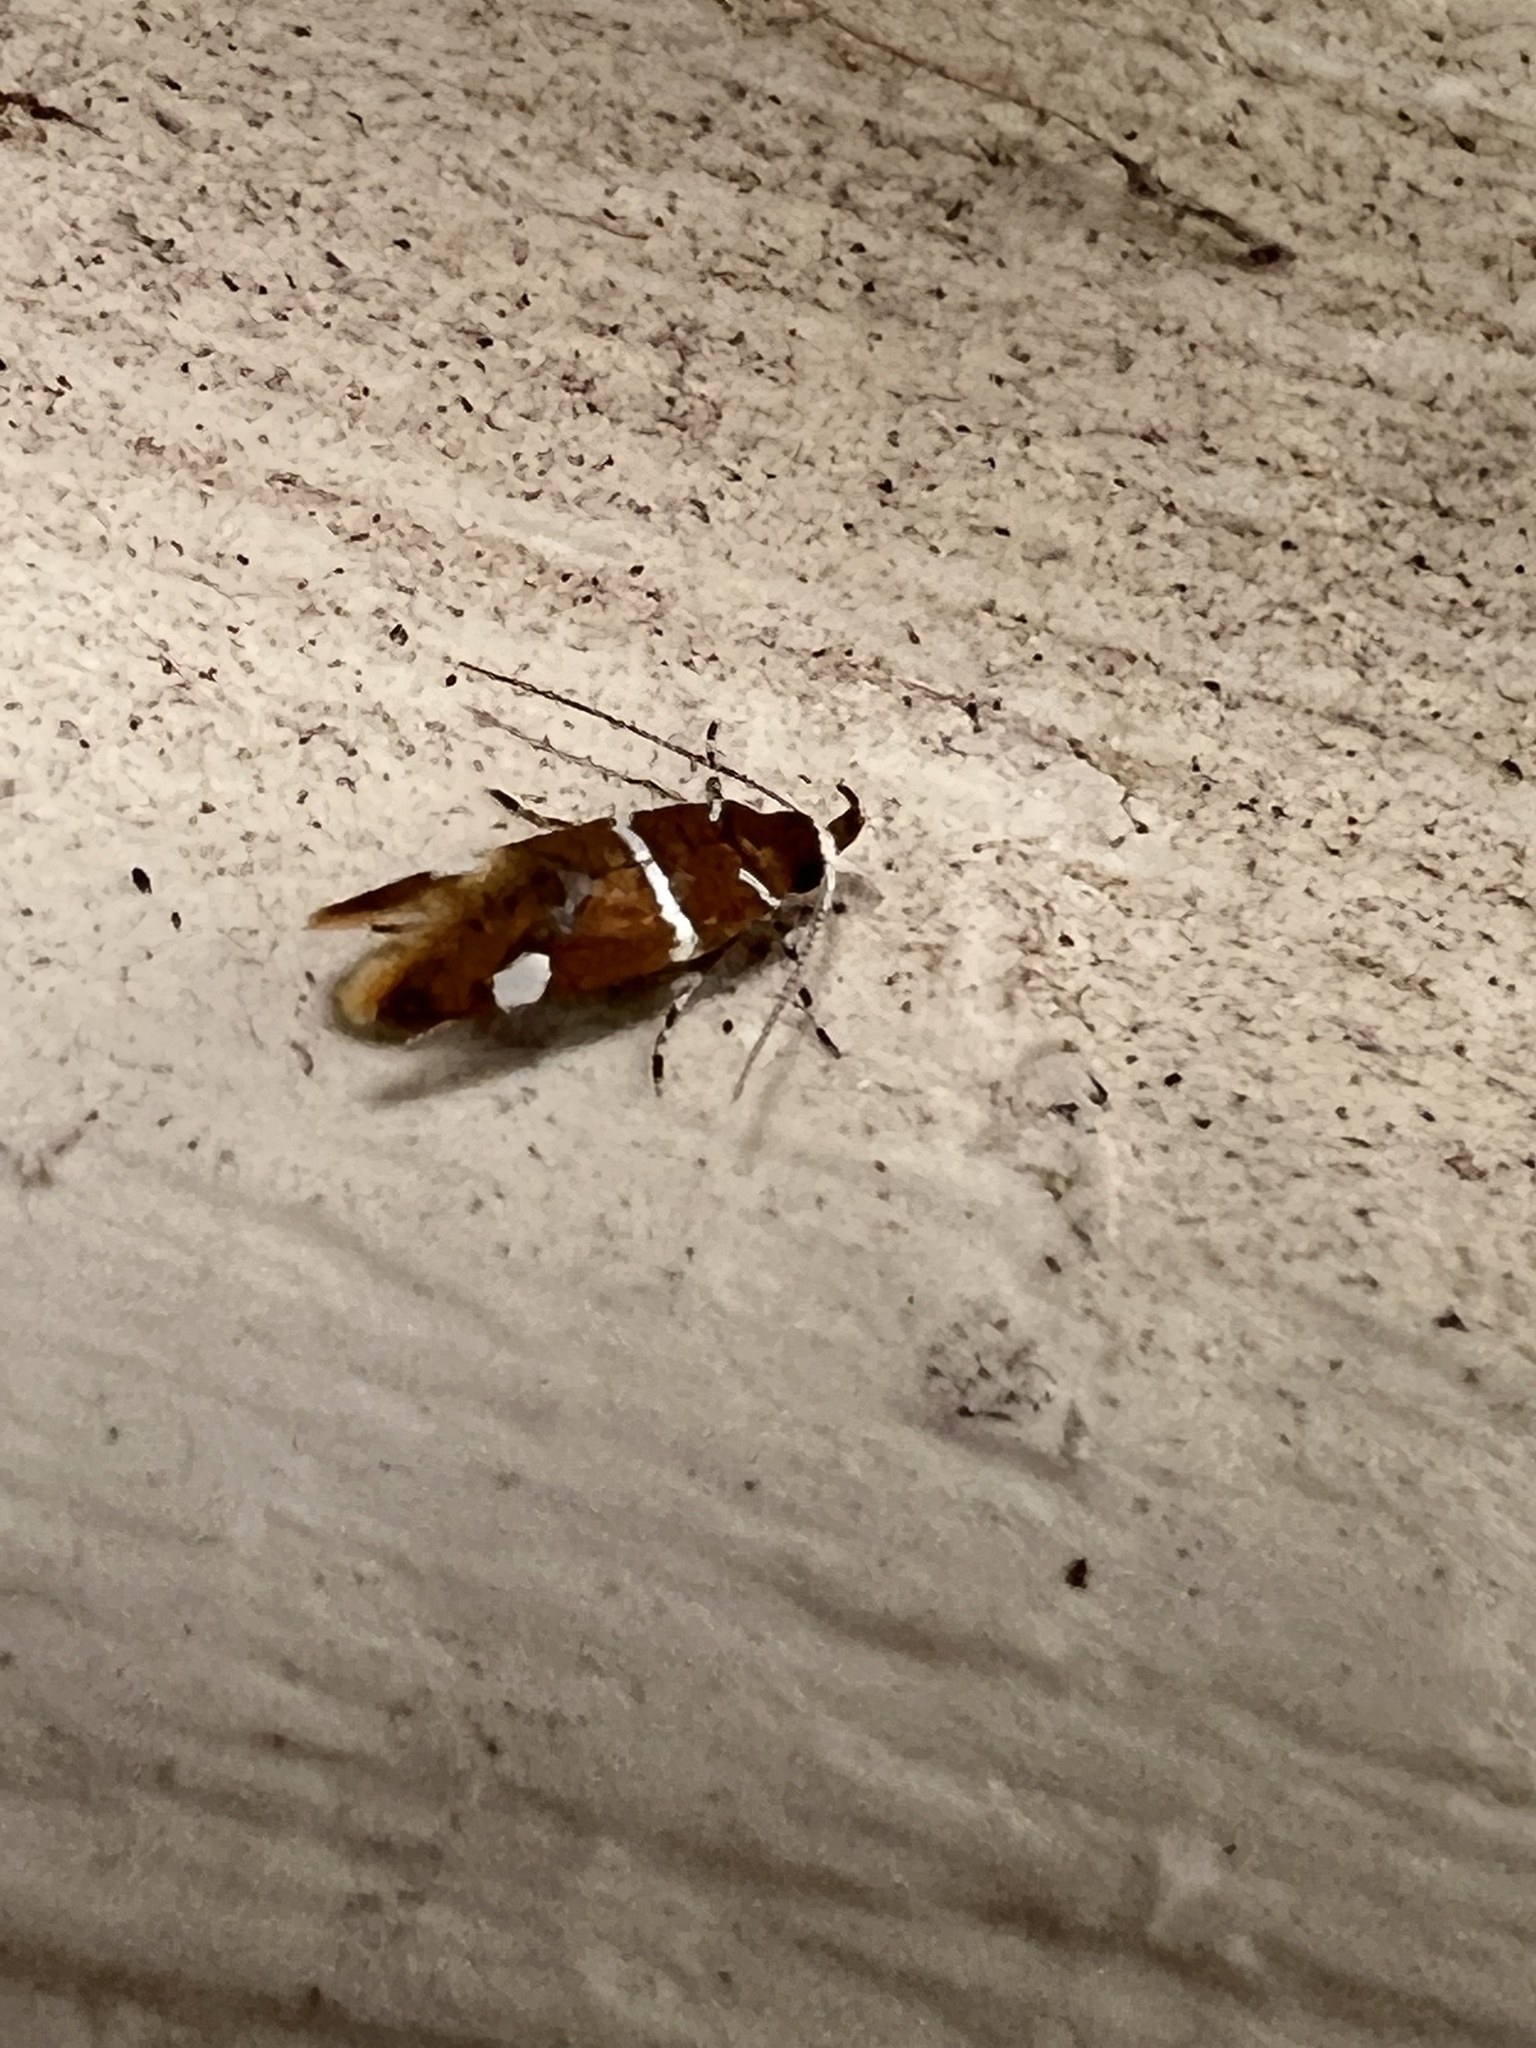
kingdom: Animalia
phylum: Arthropoda
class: Insecta
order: Lepidoptera
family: Oecophoridae
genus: Promalactis
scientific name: Promalactis suzukiella
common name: Moth
